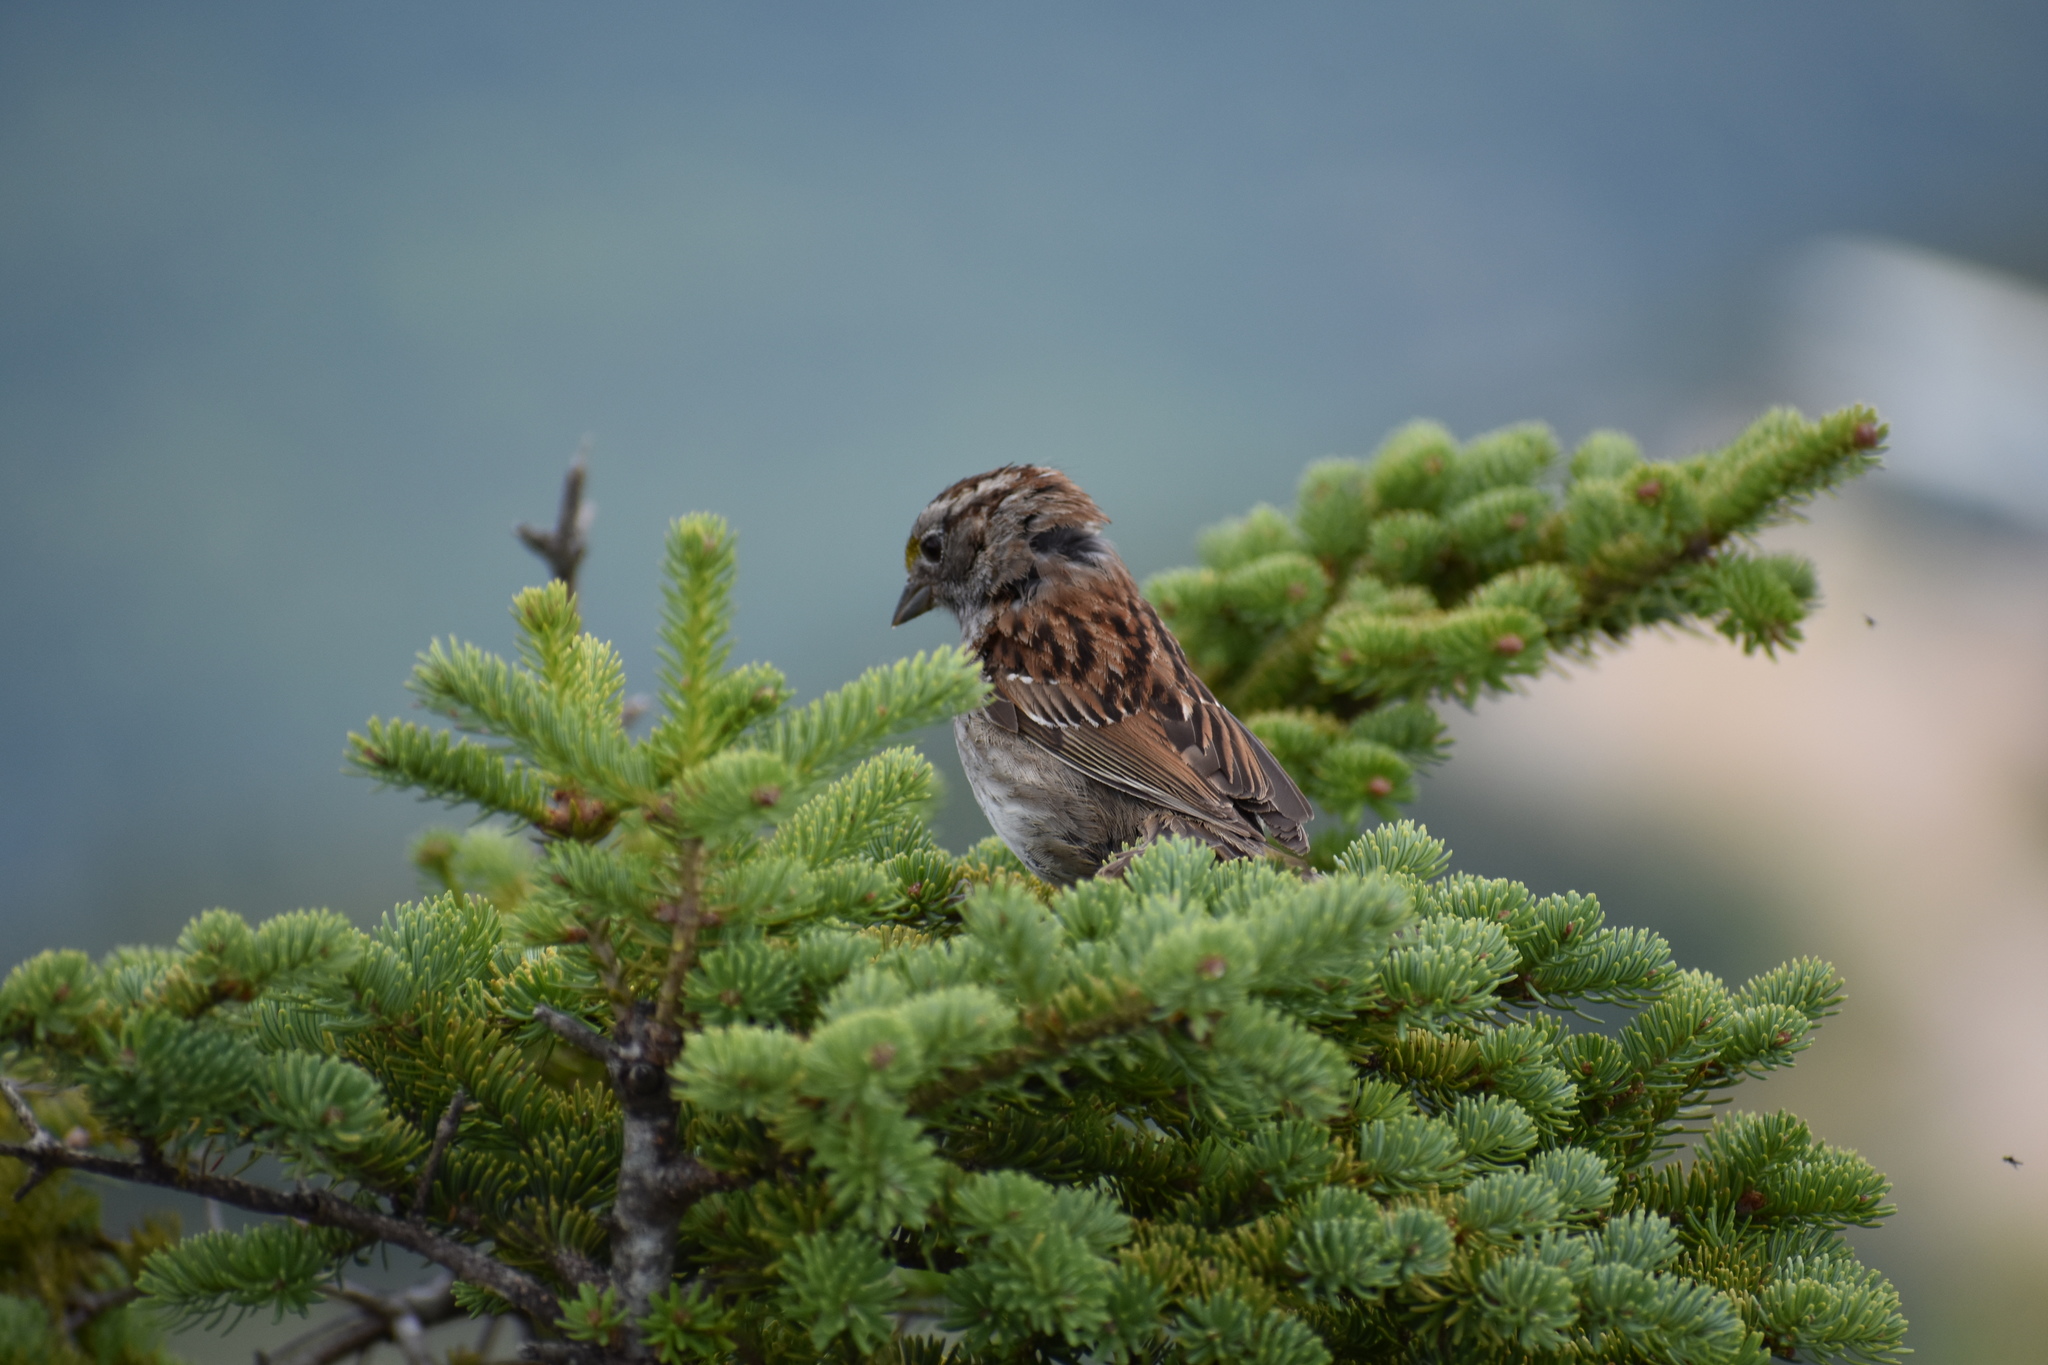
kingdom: Animalia
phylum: Chordata
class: Aves
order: Passeriformes
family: Passerellidae
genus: Zonotrichia
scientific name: Zonotrichia albicollis
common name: White-throated sparrow
